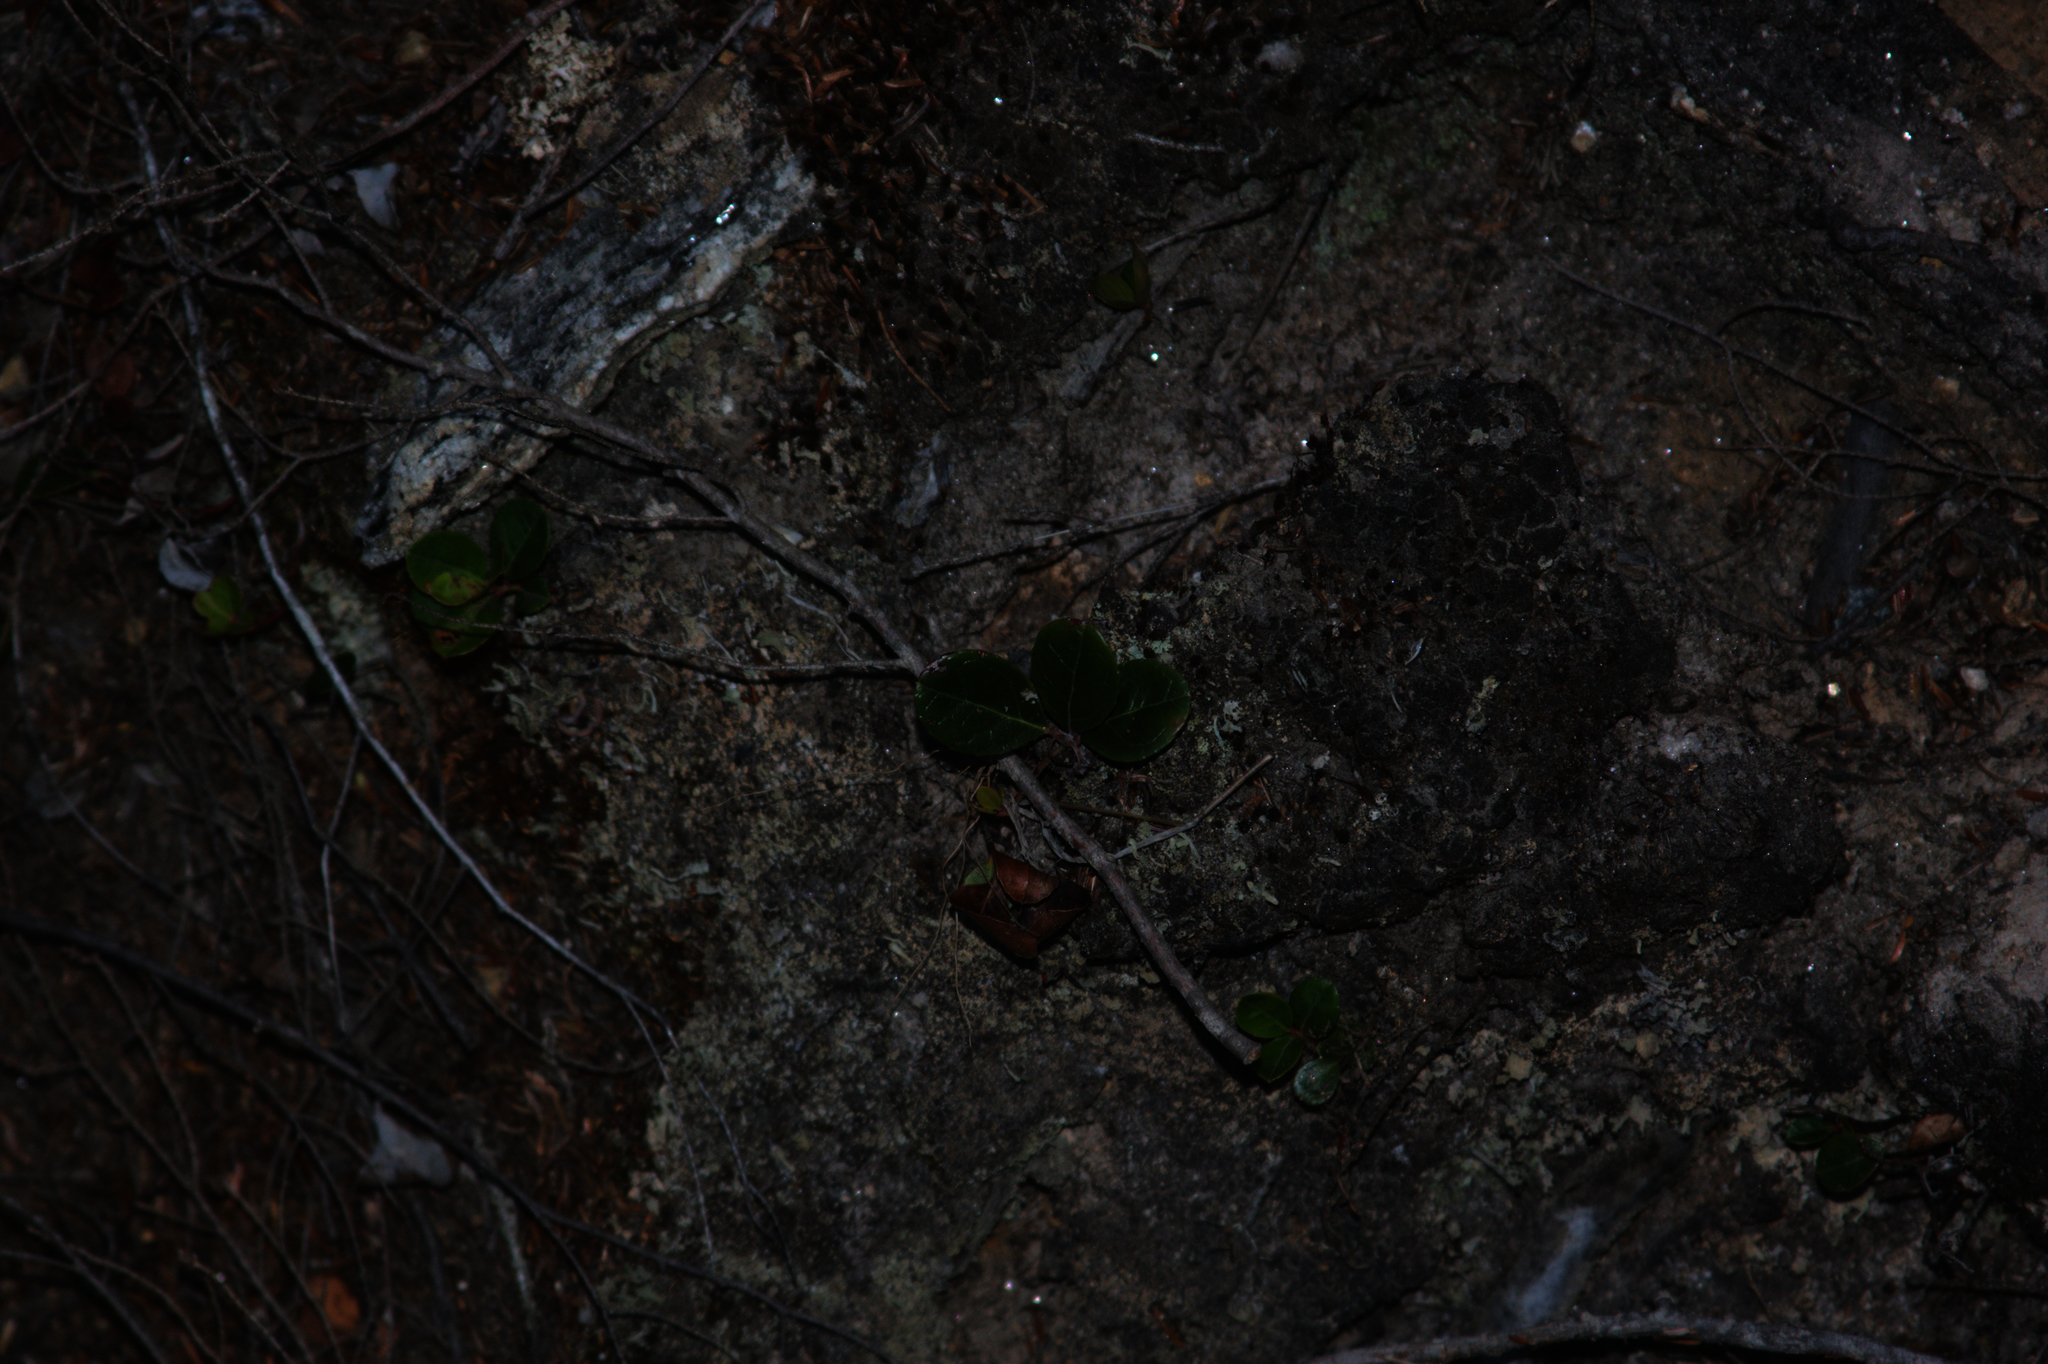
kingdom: Plantae
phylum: Tracheophyta
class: Magnoliopsida
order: Ericales
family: Ericaceae
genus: Gaultheria
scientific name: Gaultheria procumbens
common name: Checkerberry
